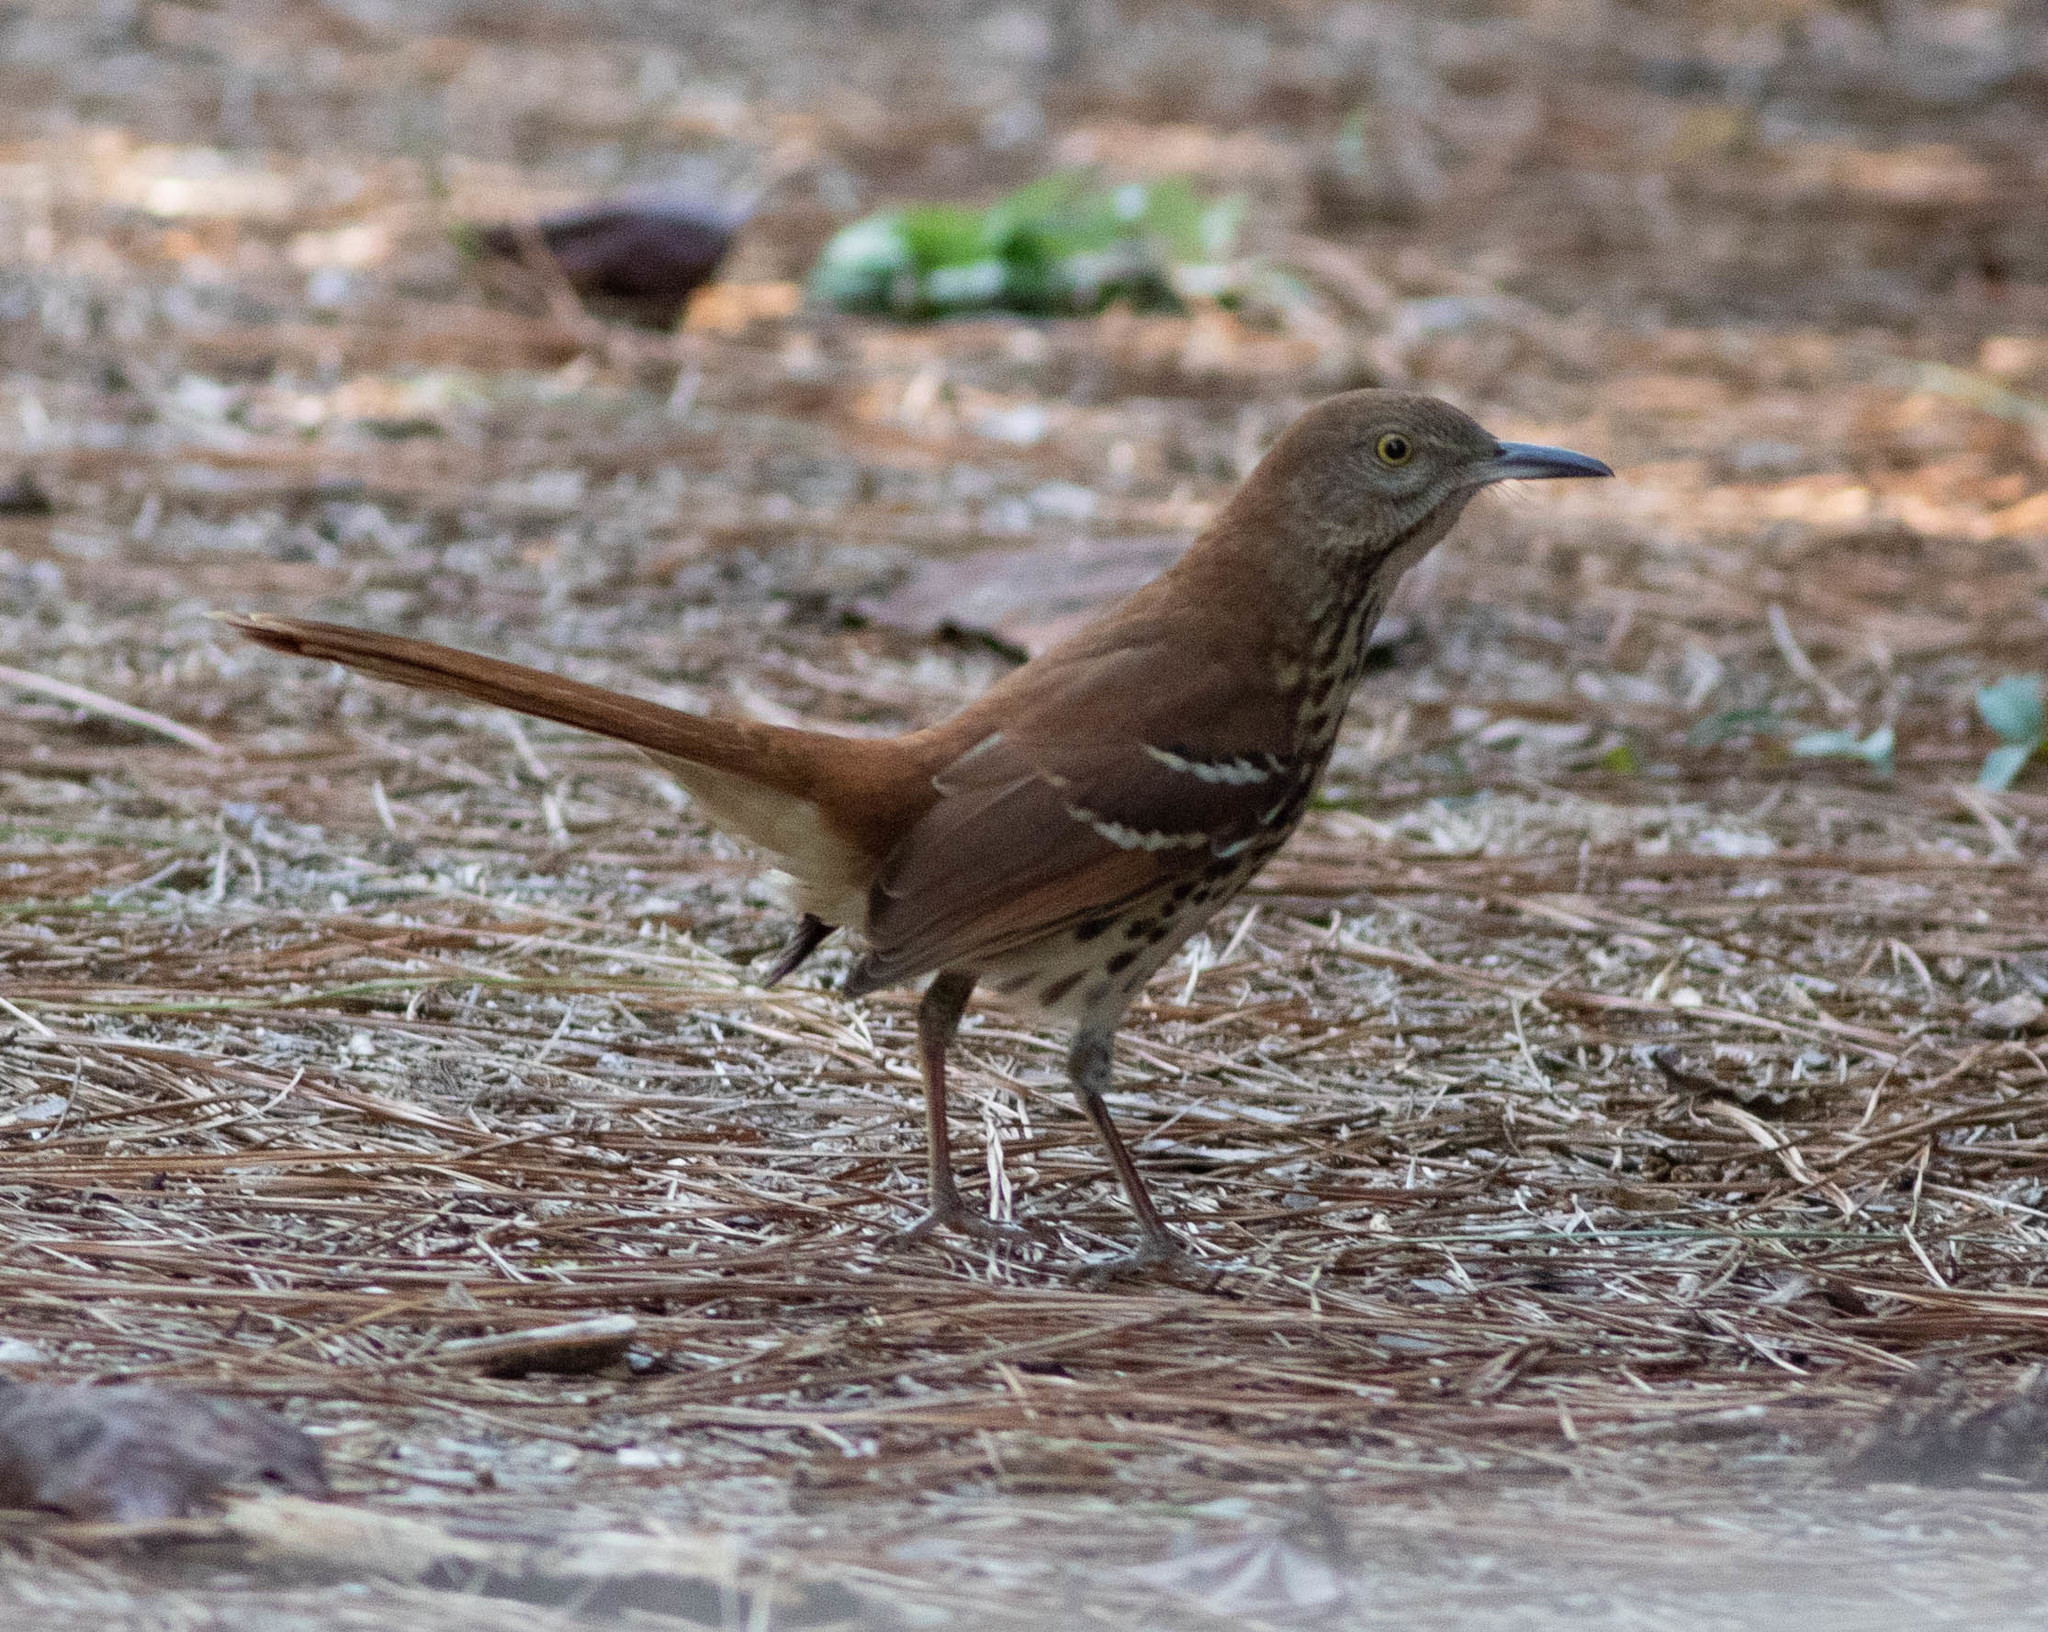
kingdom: Animalia
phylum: Chordata
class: Aves
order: Passeriformes
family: Mimidae
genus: Toxostoma
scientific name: Toxostoma rufum
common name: Brown thrasher
